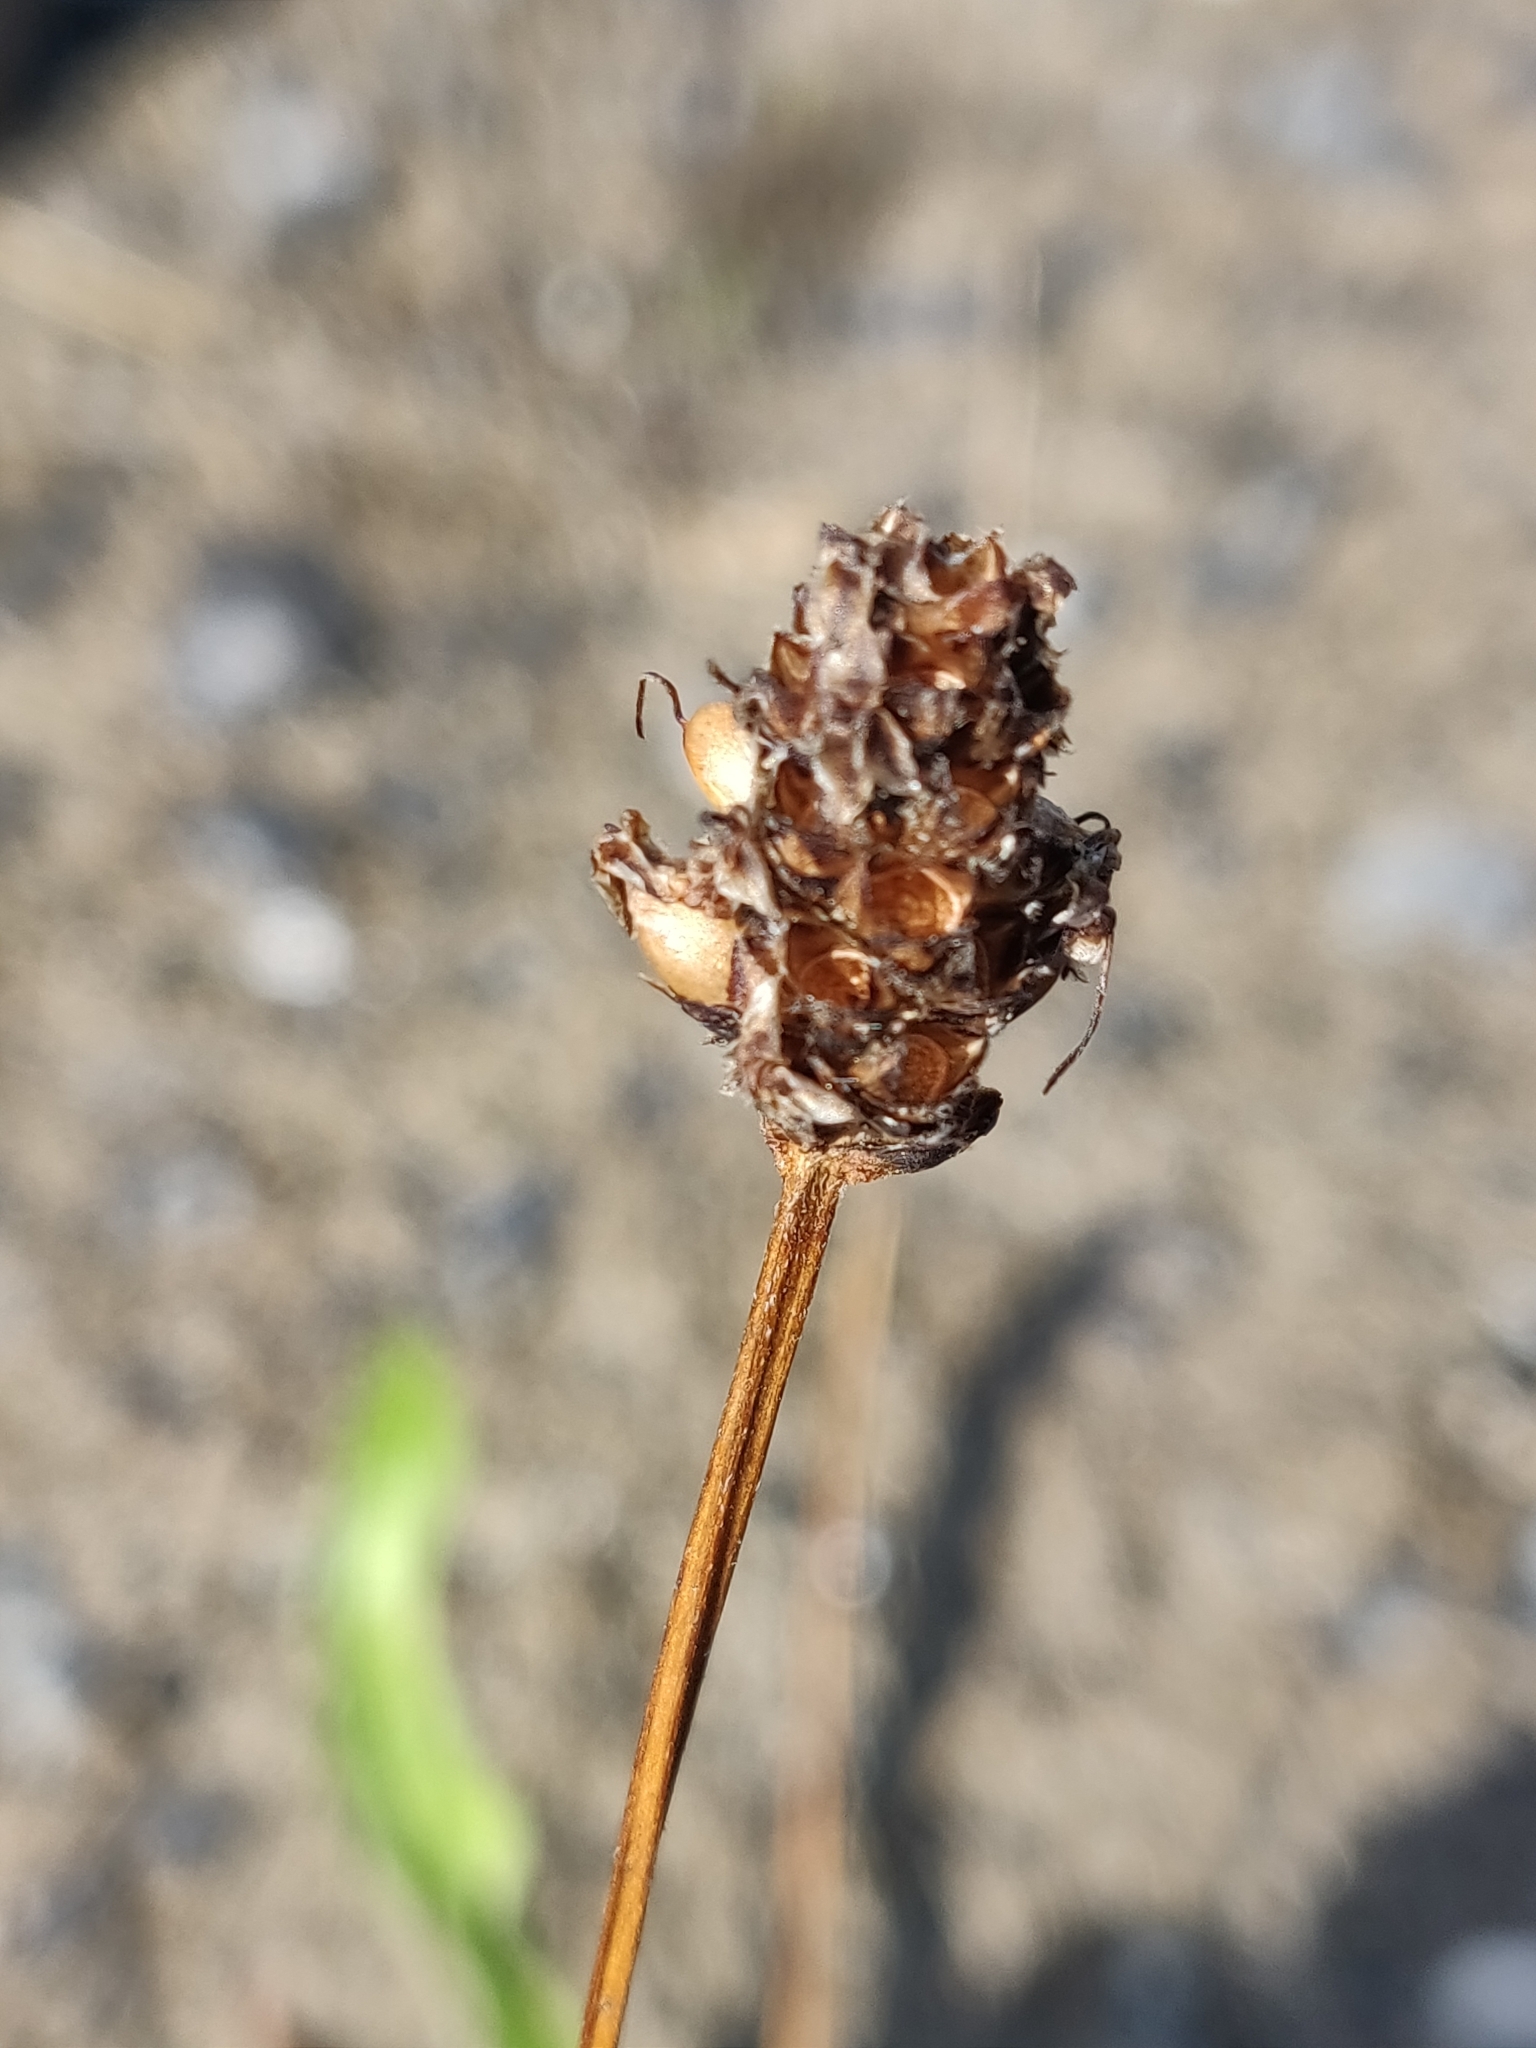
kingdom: Plantae
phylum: Tracheophyta
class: Magnoliopsida
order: Lamiales
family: Plantaginaceae
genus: Plantago
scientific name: Plantago lanceolata
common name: Ribwort plantain
